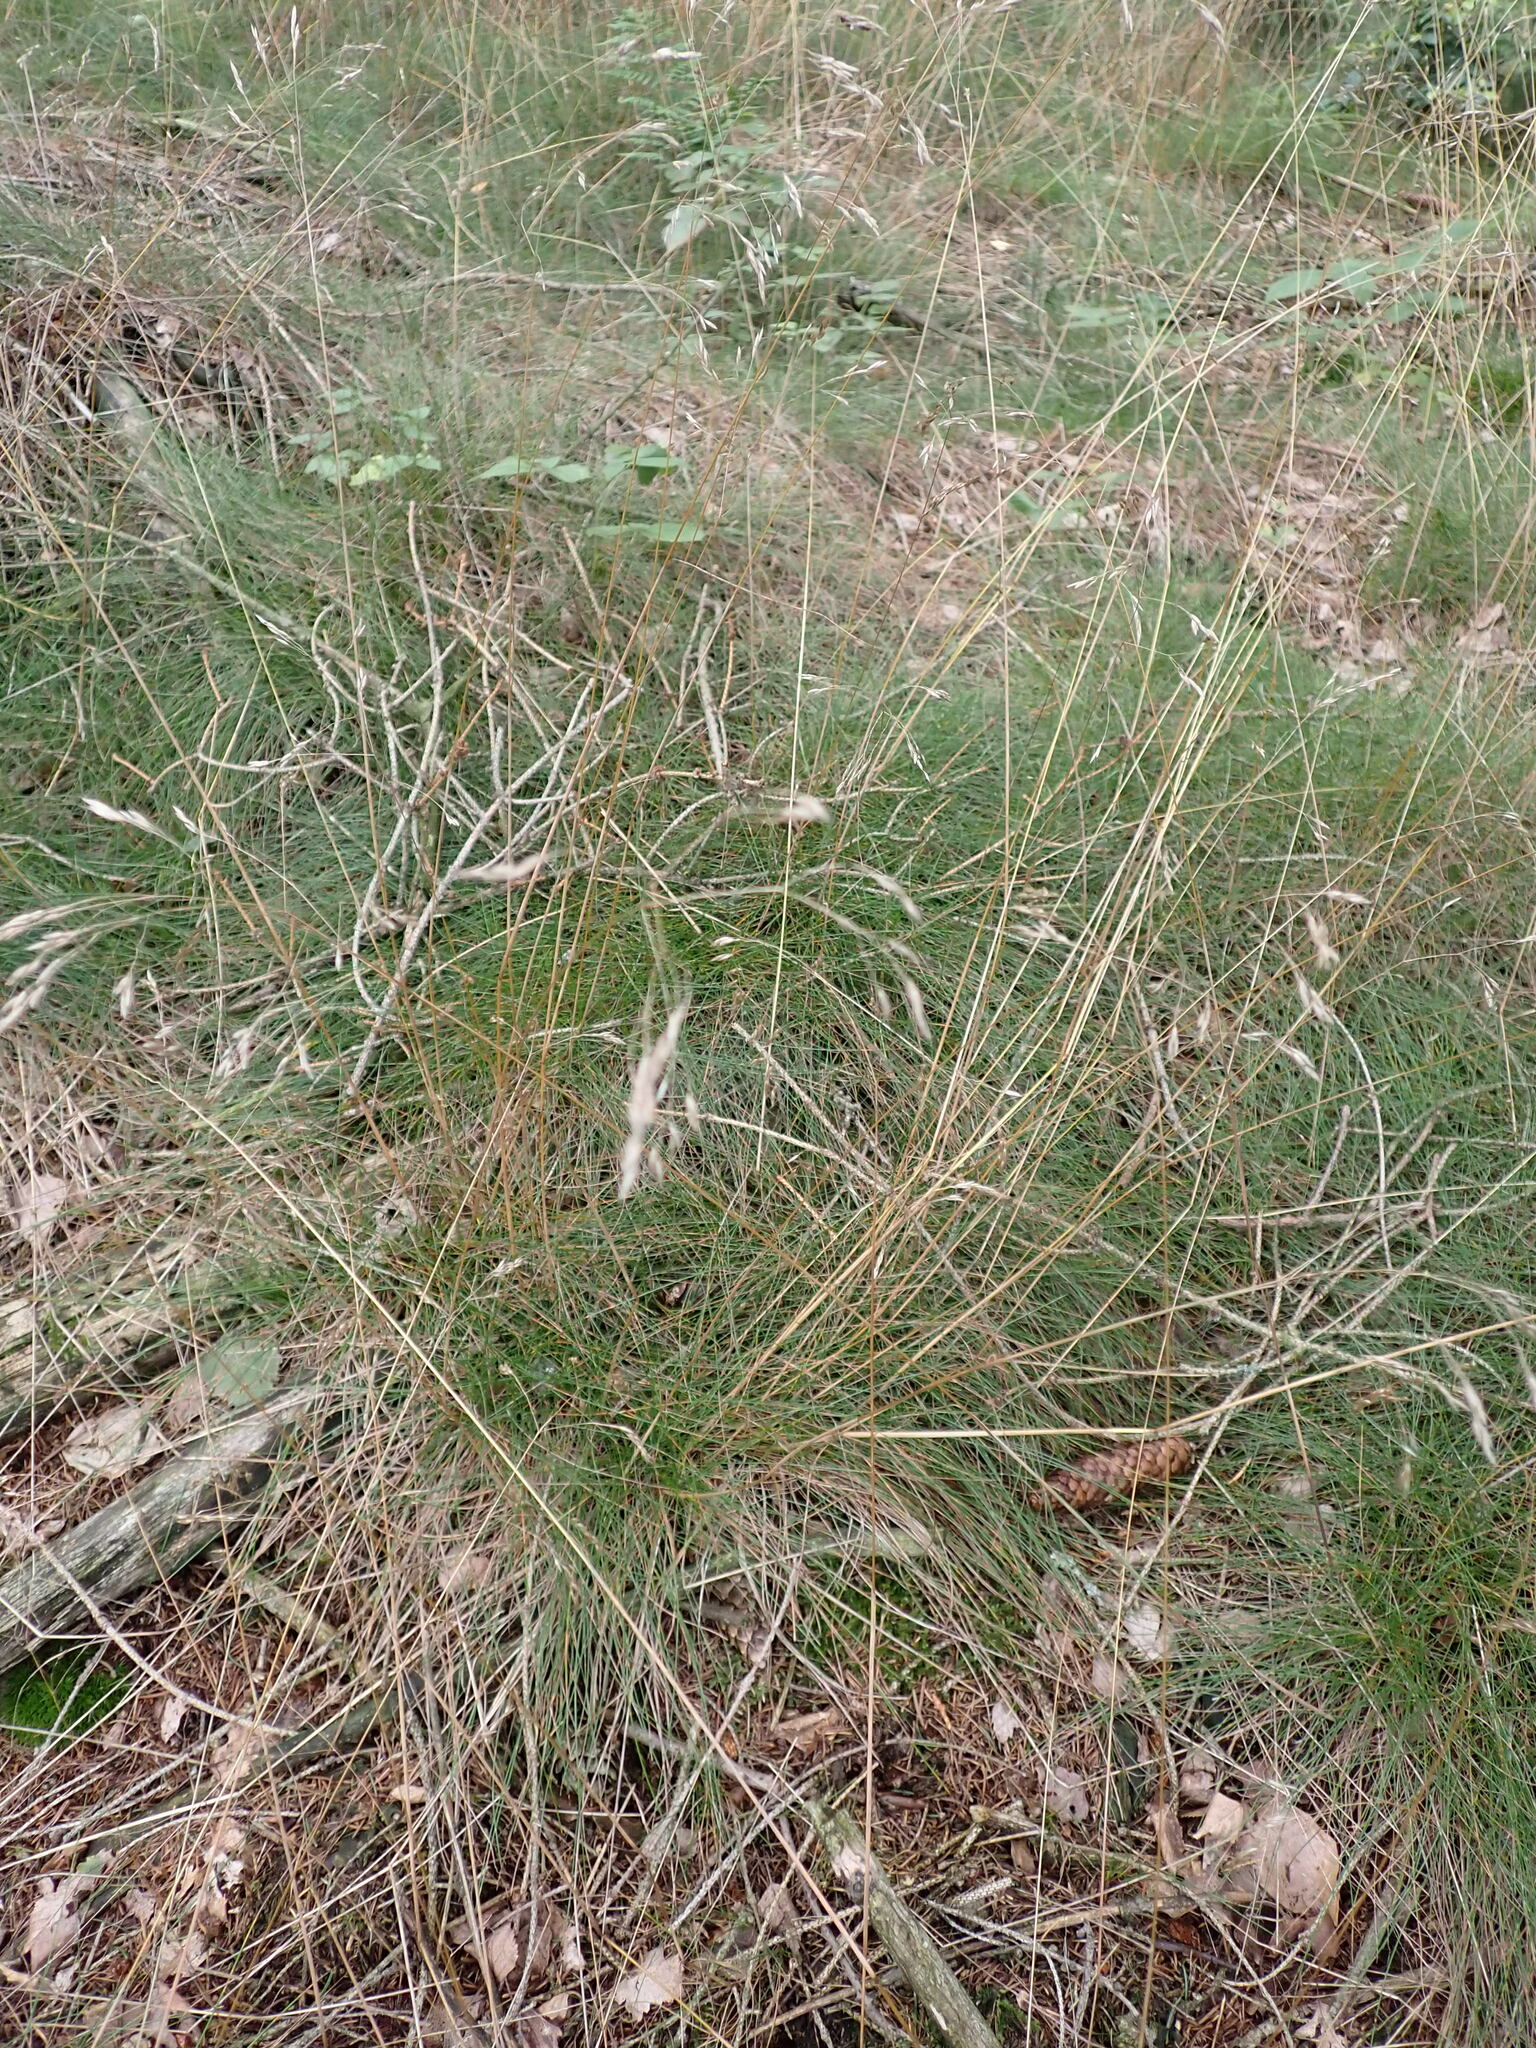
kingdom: Plantae
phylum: Tracheophyta
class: Liliopsida
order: Poales
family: Poaceae
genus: Avenella
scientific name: Avenella flexuosa
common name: Wavy hairgrass
